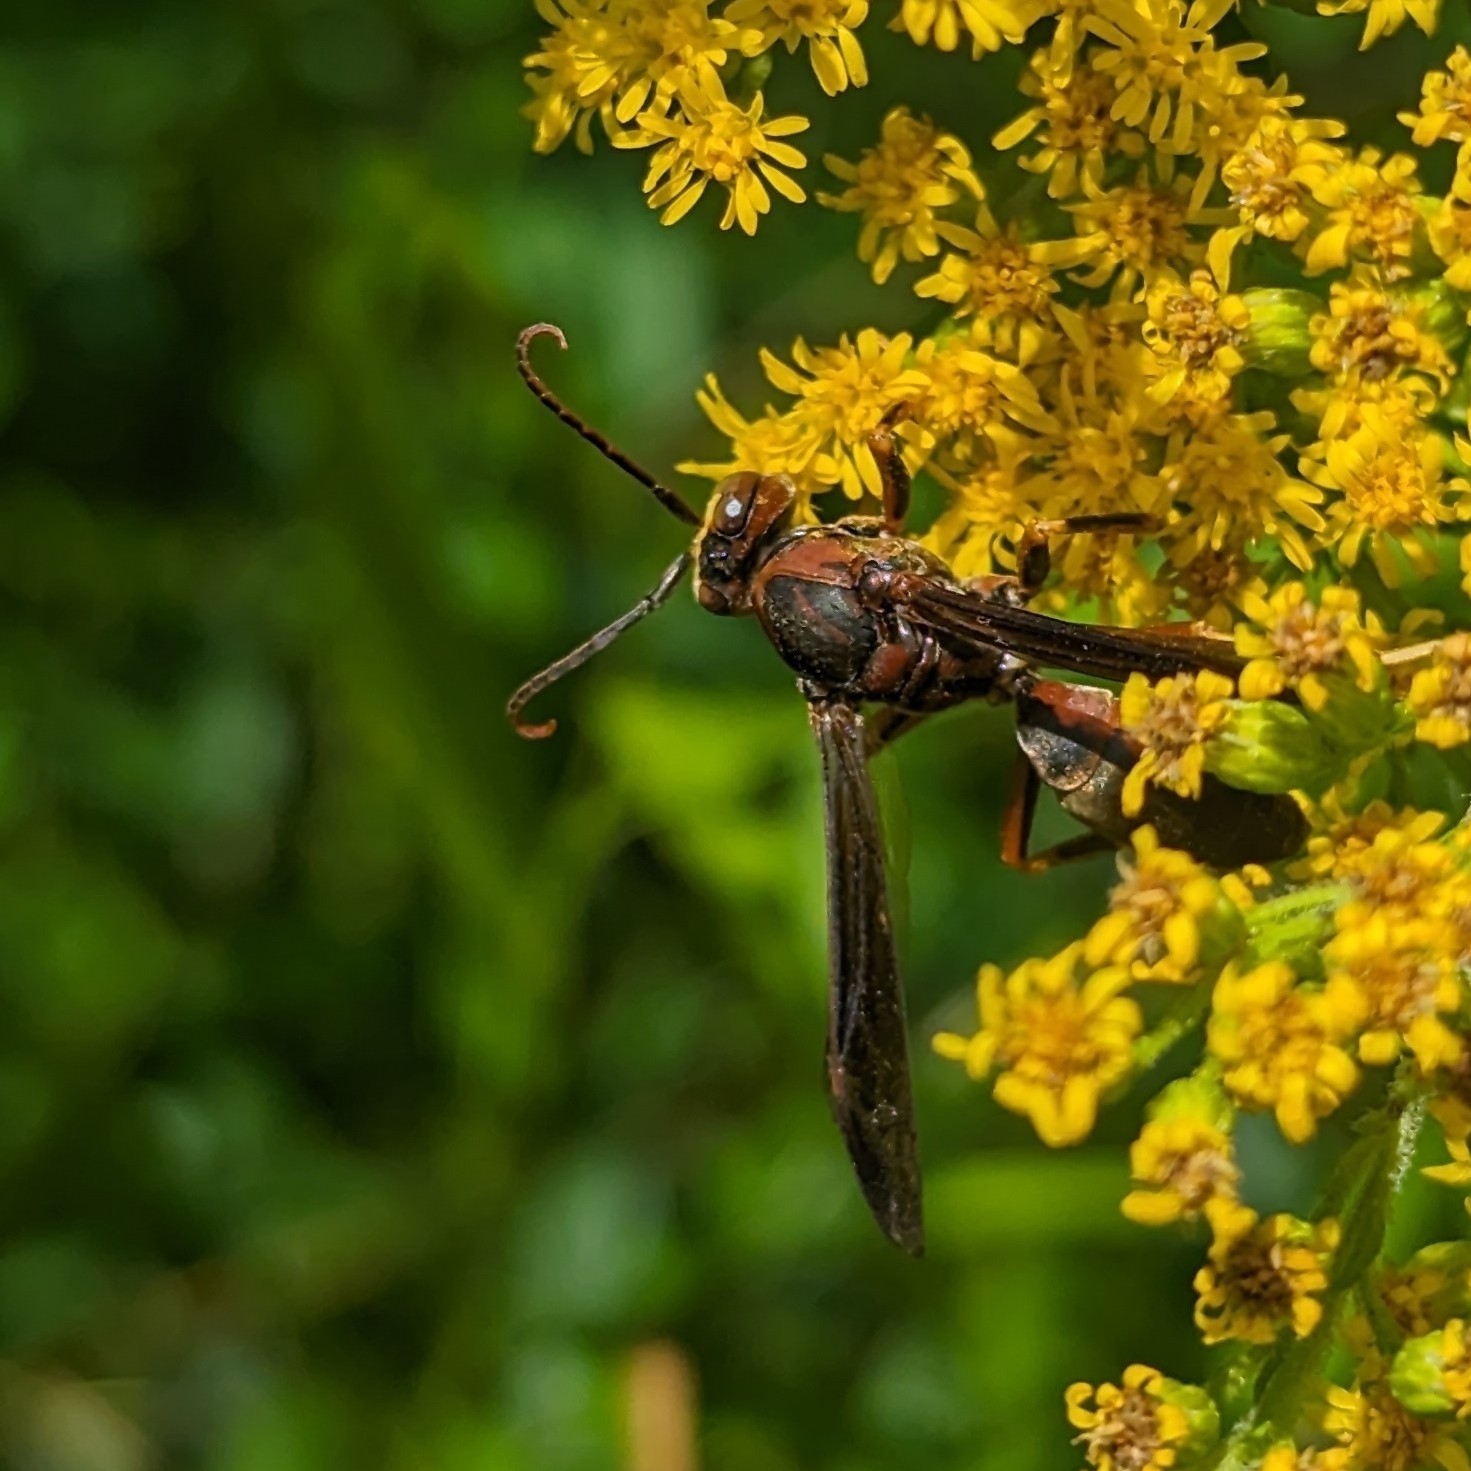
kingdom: Animalia
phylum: Arthropoda
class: Insecta
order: Hymenoptera
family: Eumenidae
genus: Polistes
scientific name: Polistes metricus
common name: Metric paper wasp
